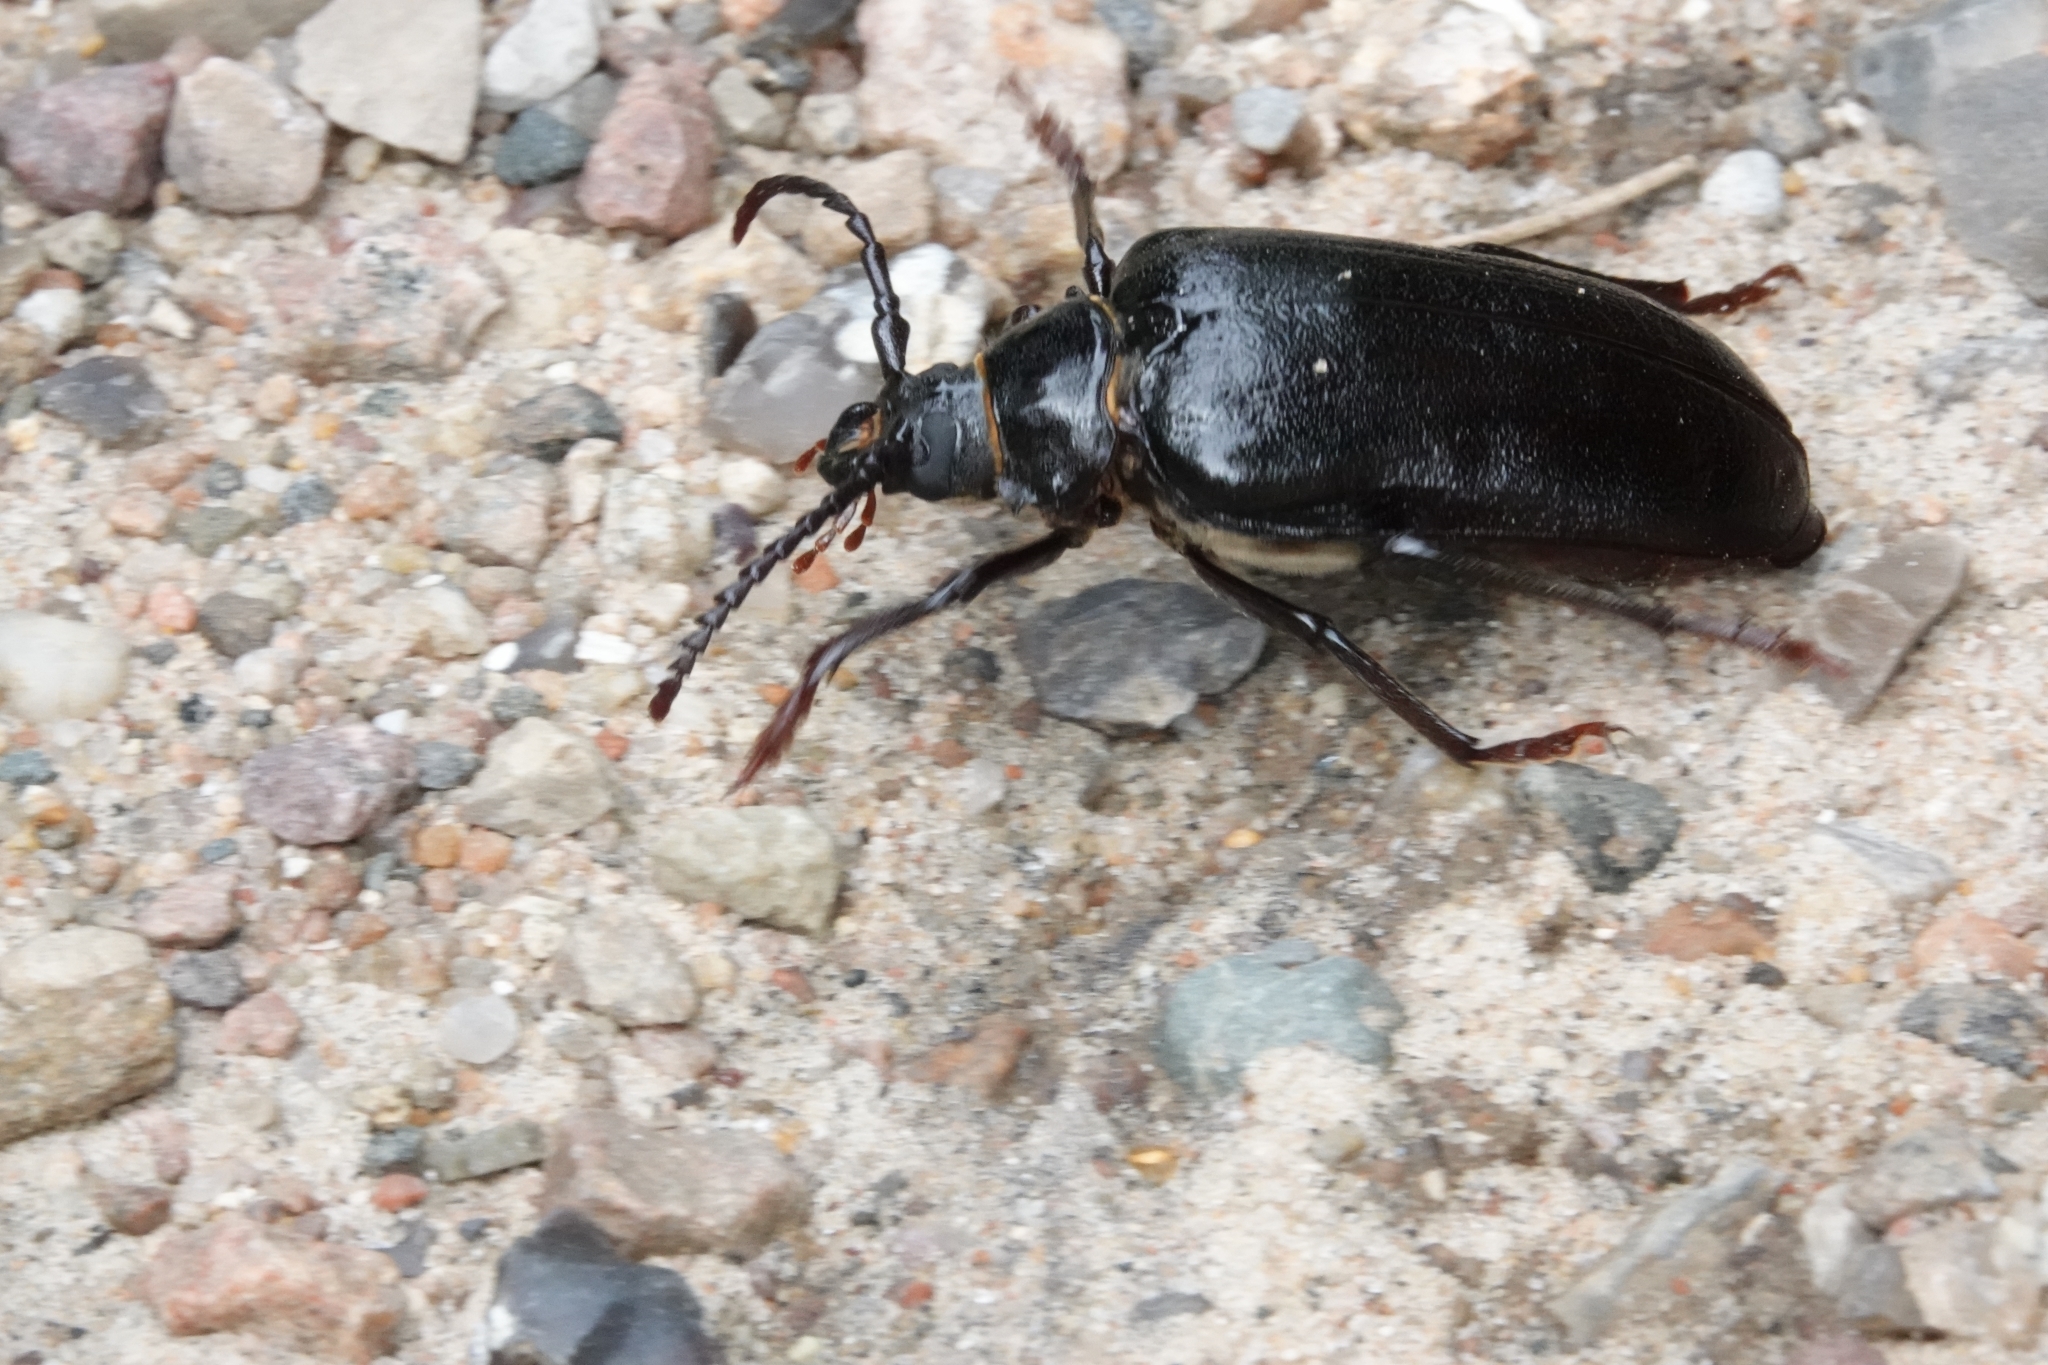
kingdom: Animalia
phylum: Arthropoda
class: Insecta
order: Coleoptera
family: Cerambycidae
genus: Prionus
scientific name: Prionus coriarius
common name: Tanner beetle
